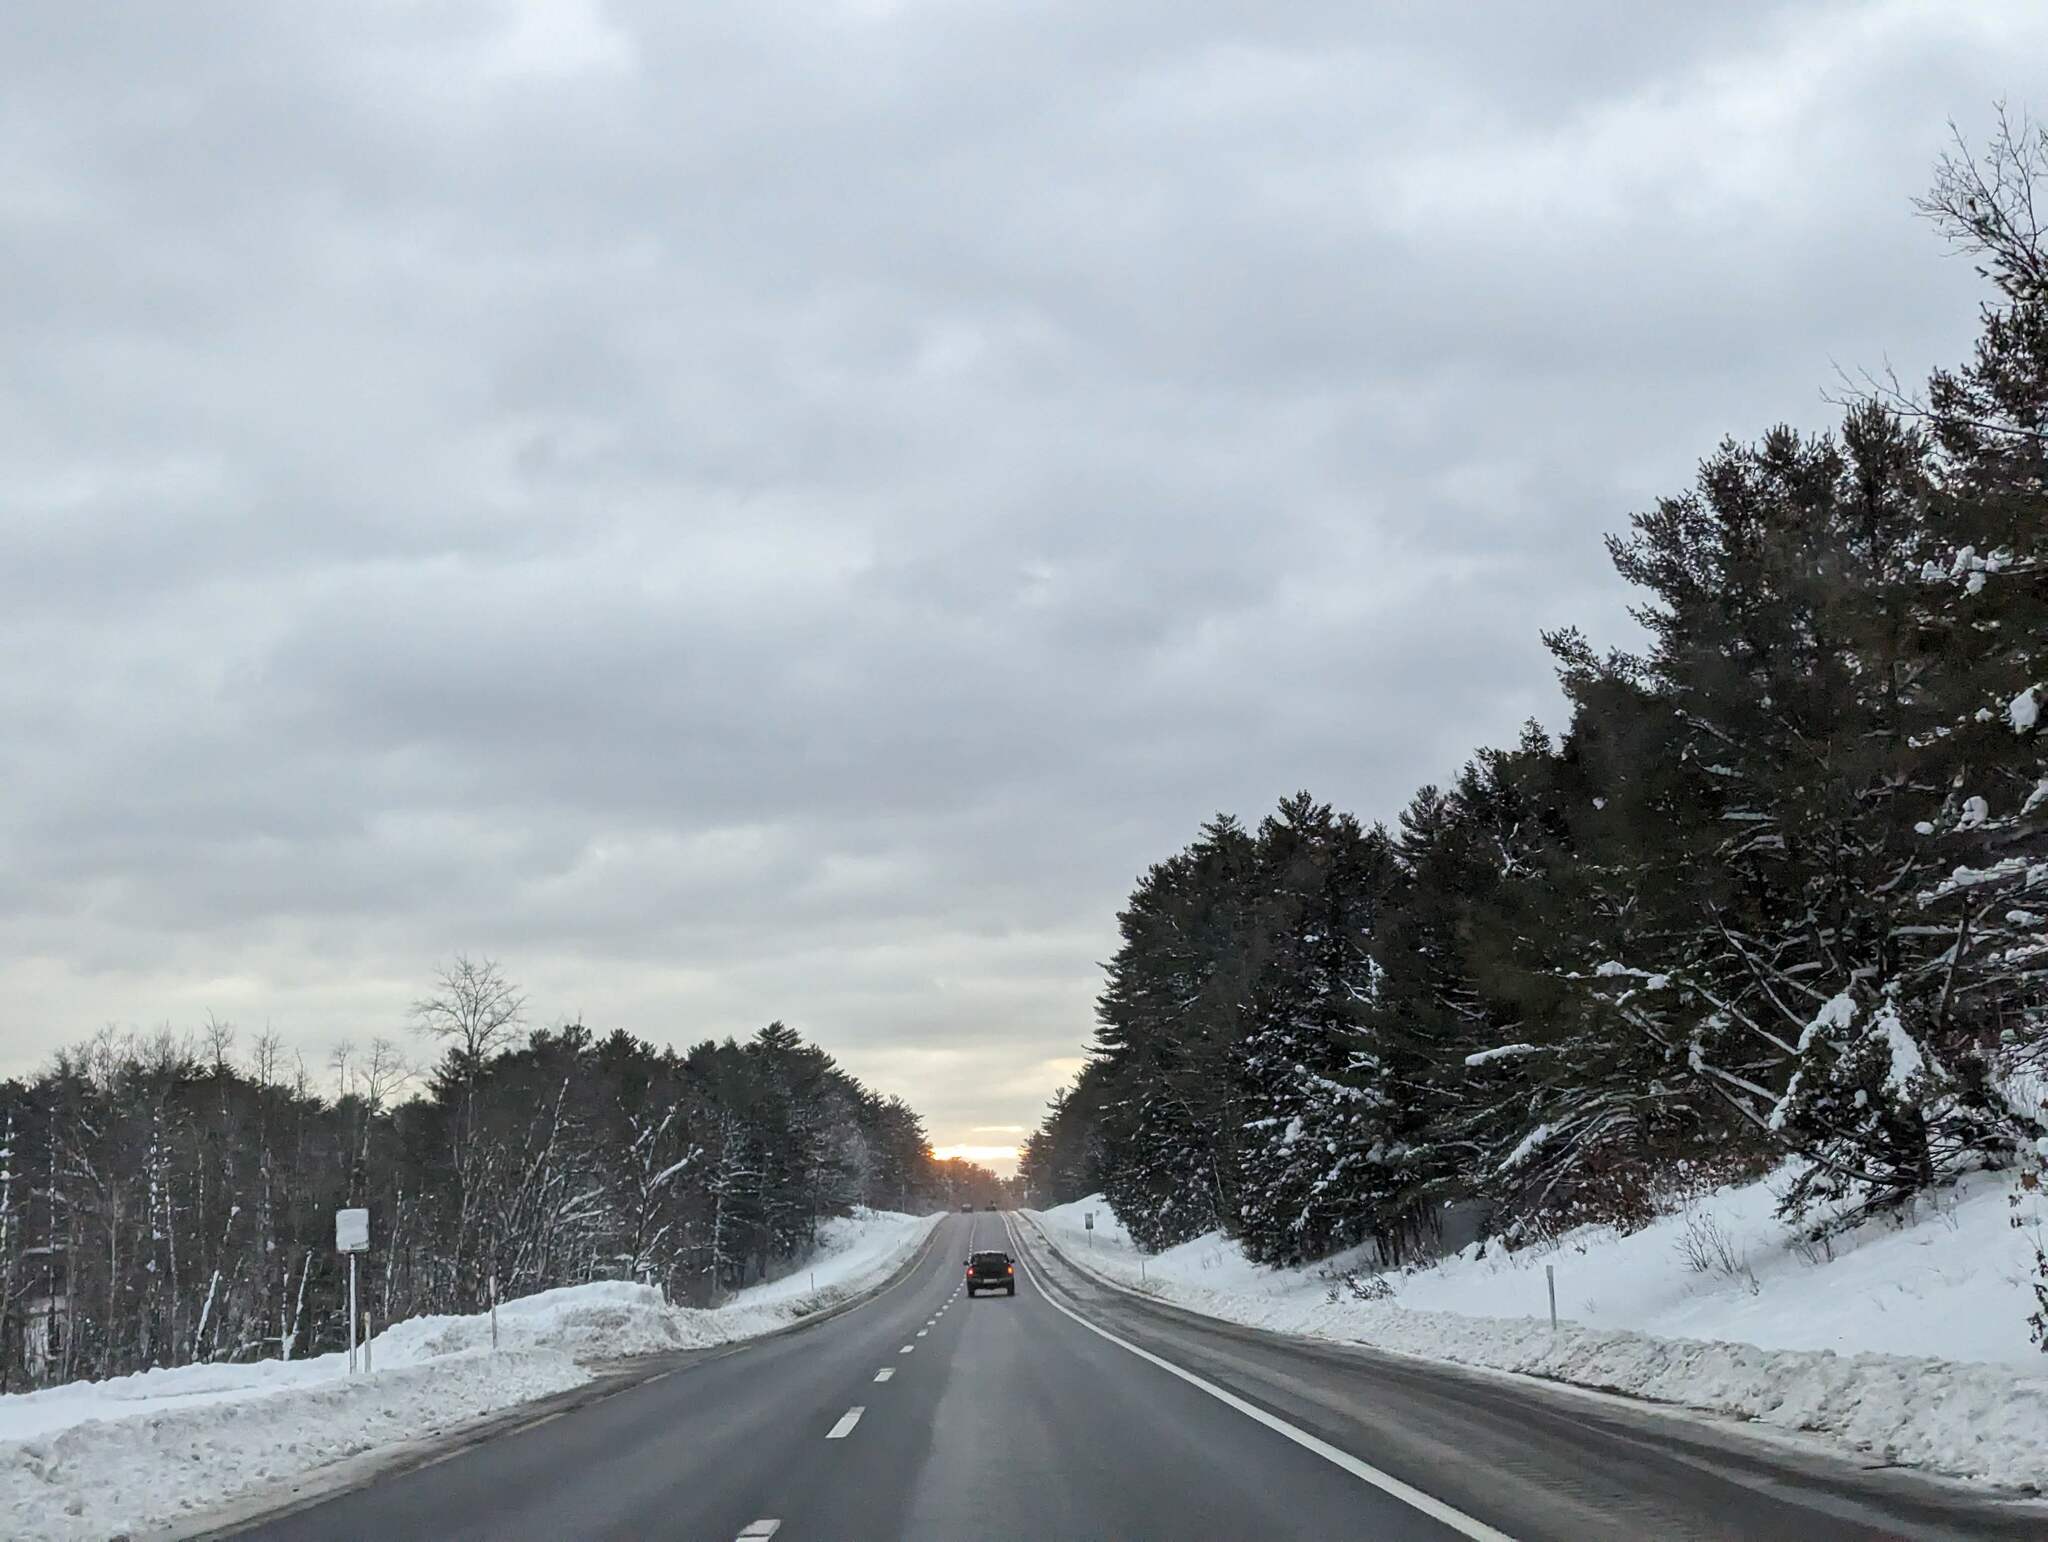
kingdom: Plantae
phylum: Tracheophyta
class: Pinopsida
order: Pinales
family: Pinaceae
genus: Pinus
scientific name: Pinus strobus
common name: Weymouth pine
